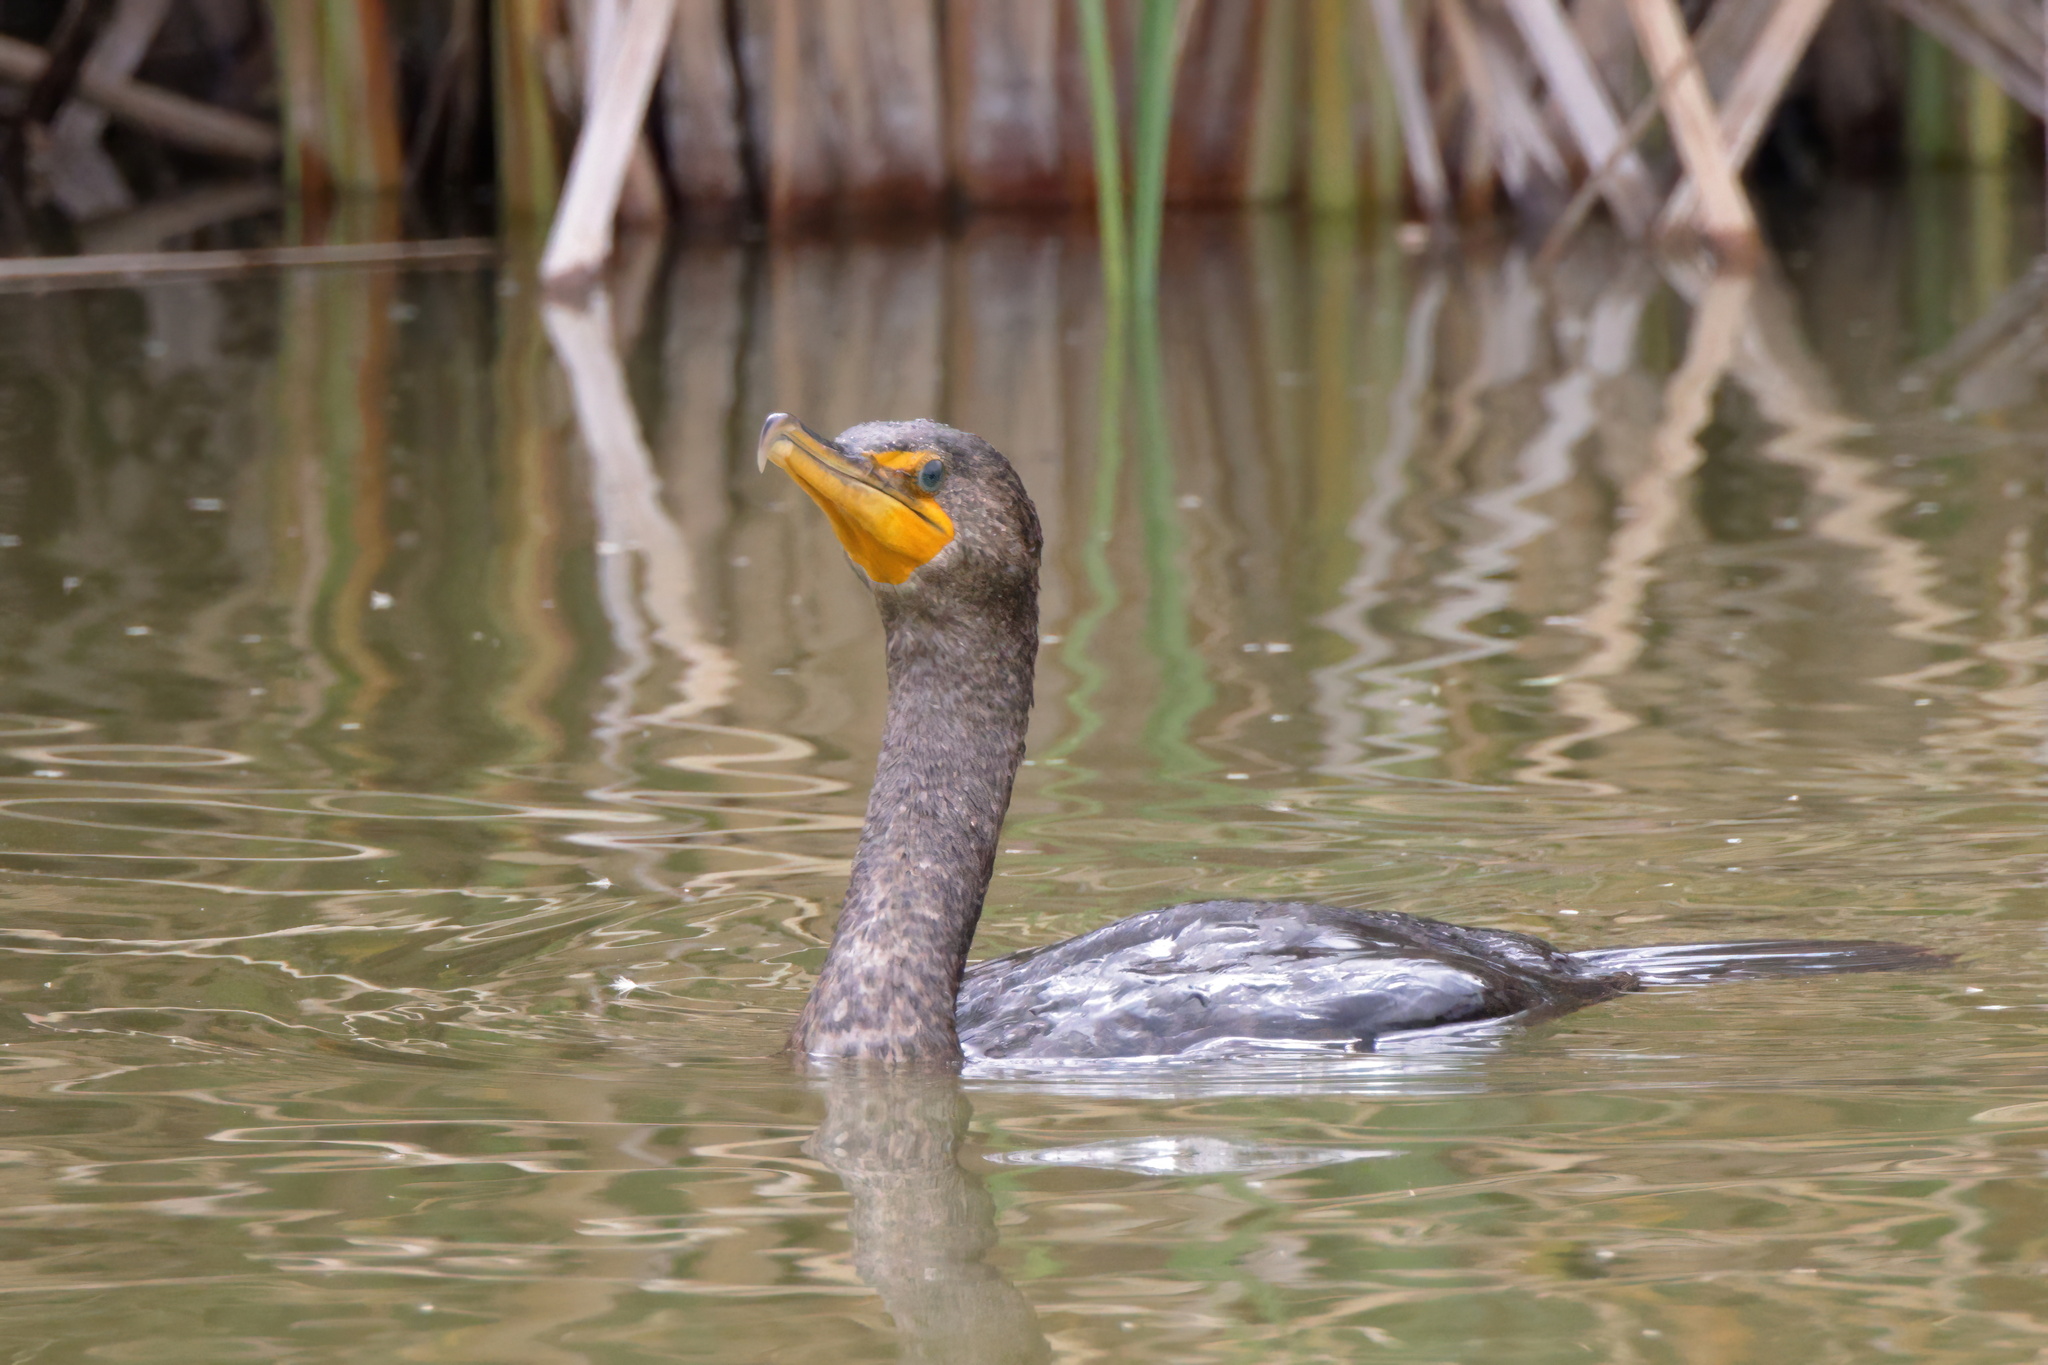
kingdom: Animalia
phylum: Chordata
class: Aves
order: Suliformes
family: Phalacrocoracidae
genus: Phalacrocorax
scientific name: Phalacrocorax auritus
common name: Double-crested cormorant
